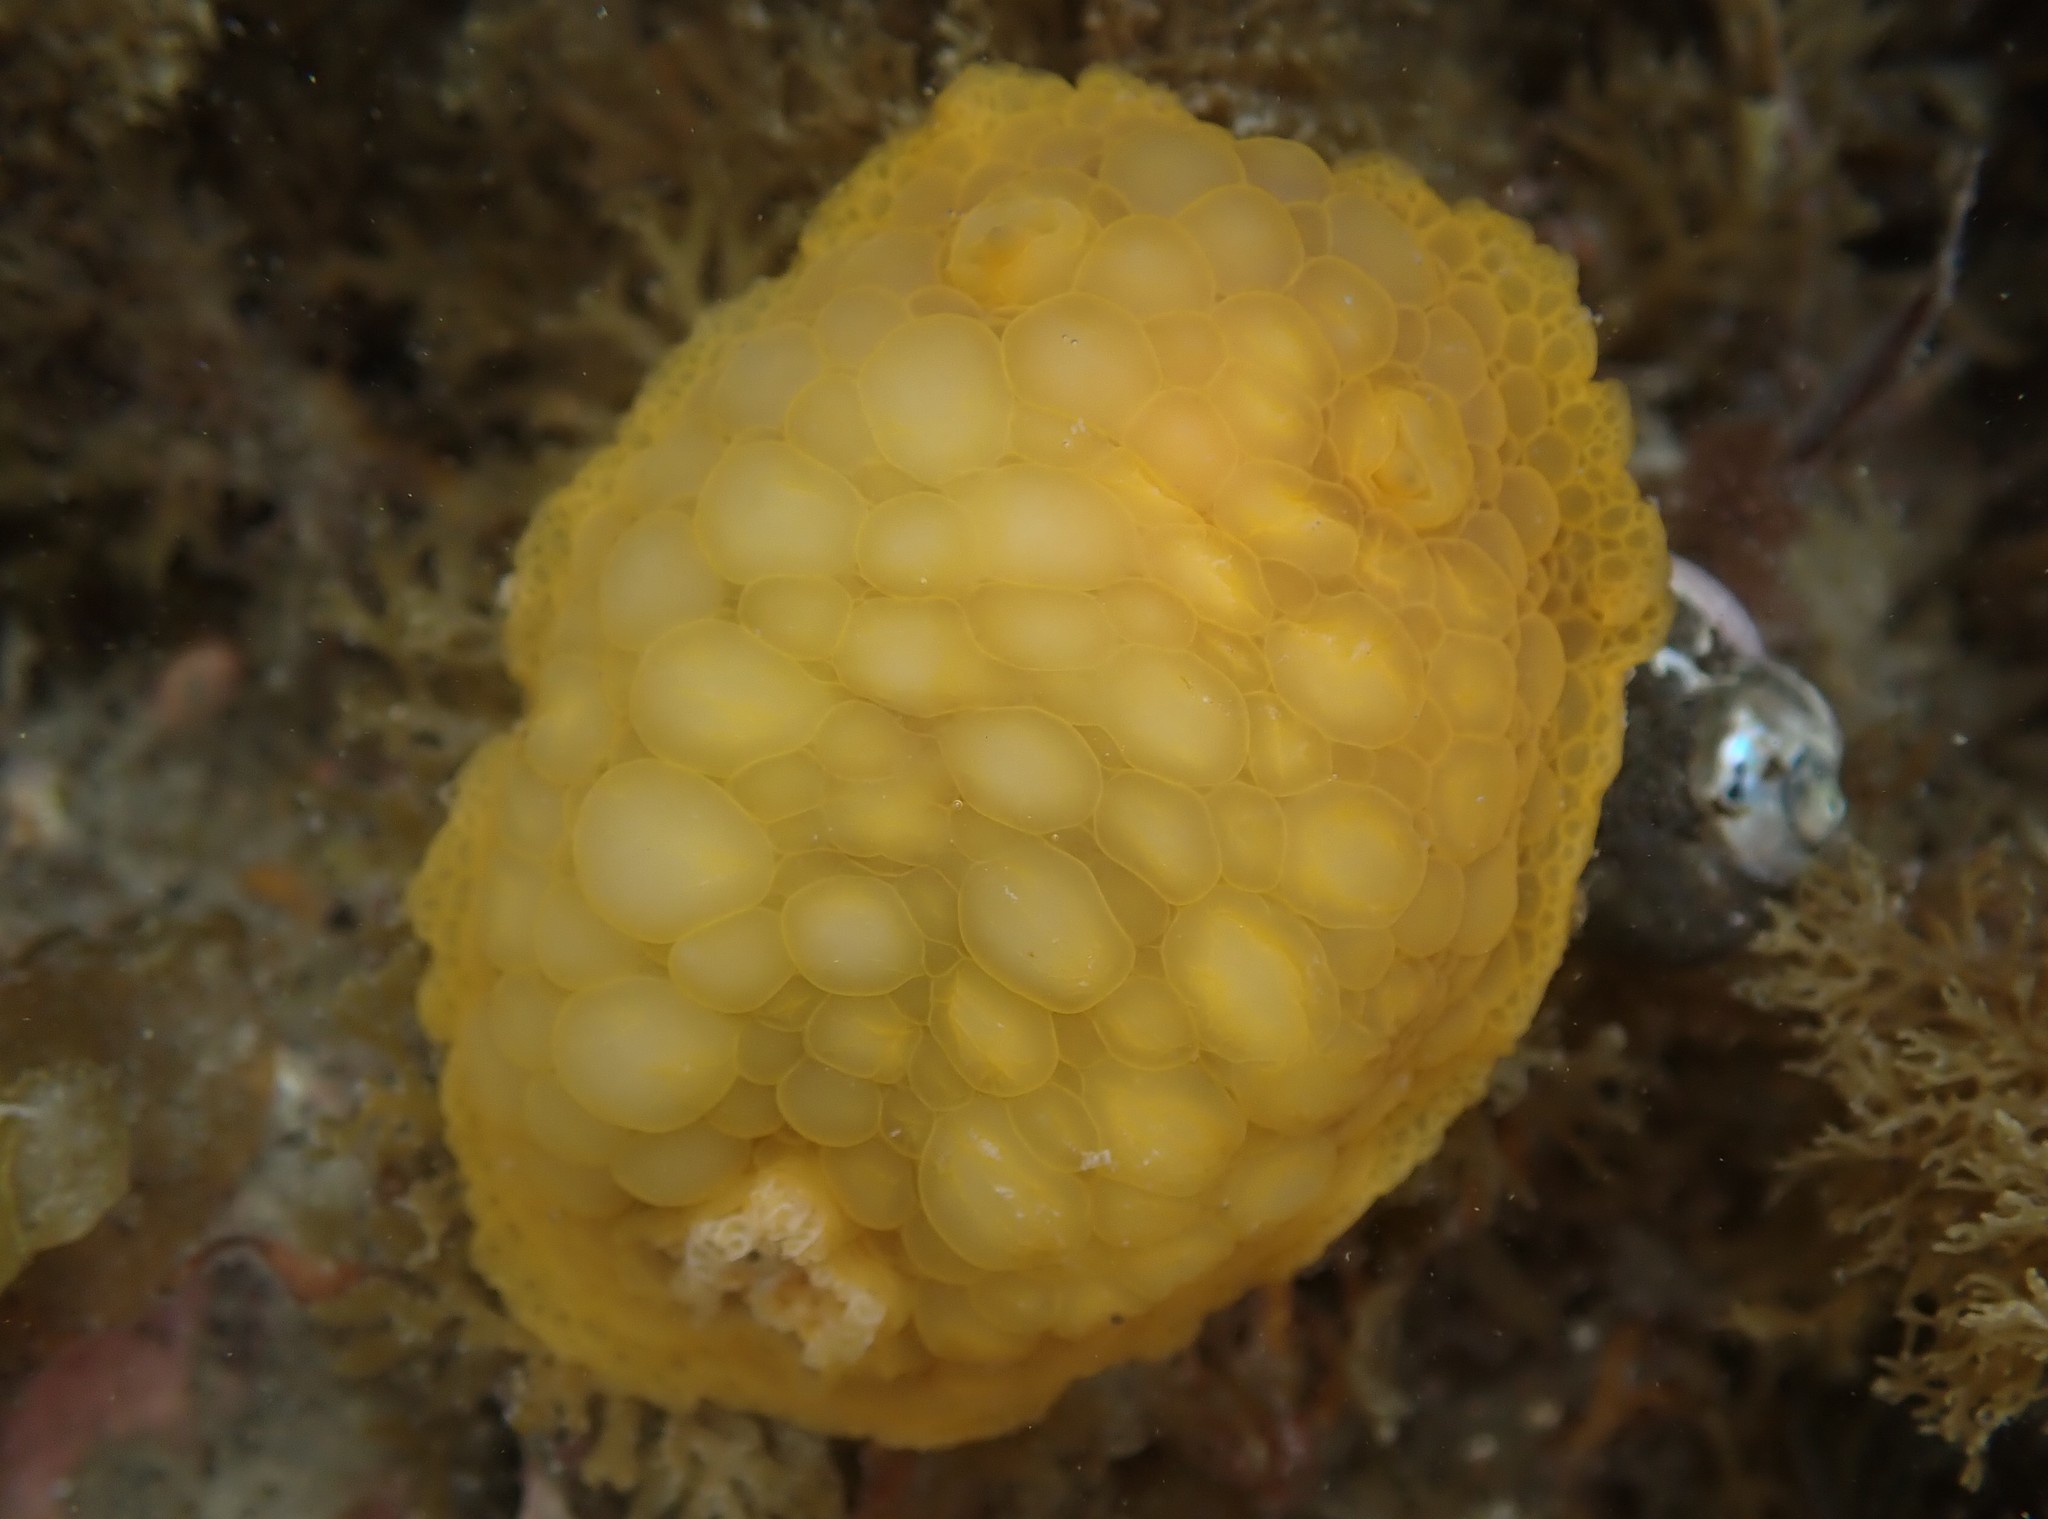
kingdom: Animalia
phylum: Mollusca
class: Gastropoda
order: Nudibranchia
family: Dorididae
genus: Doris
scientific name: Doris wellingtonensis
